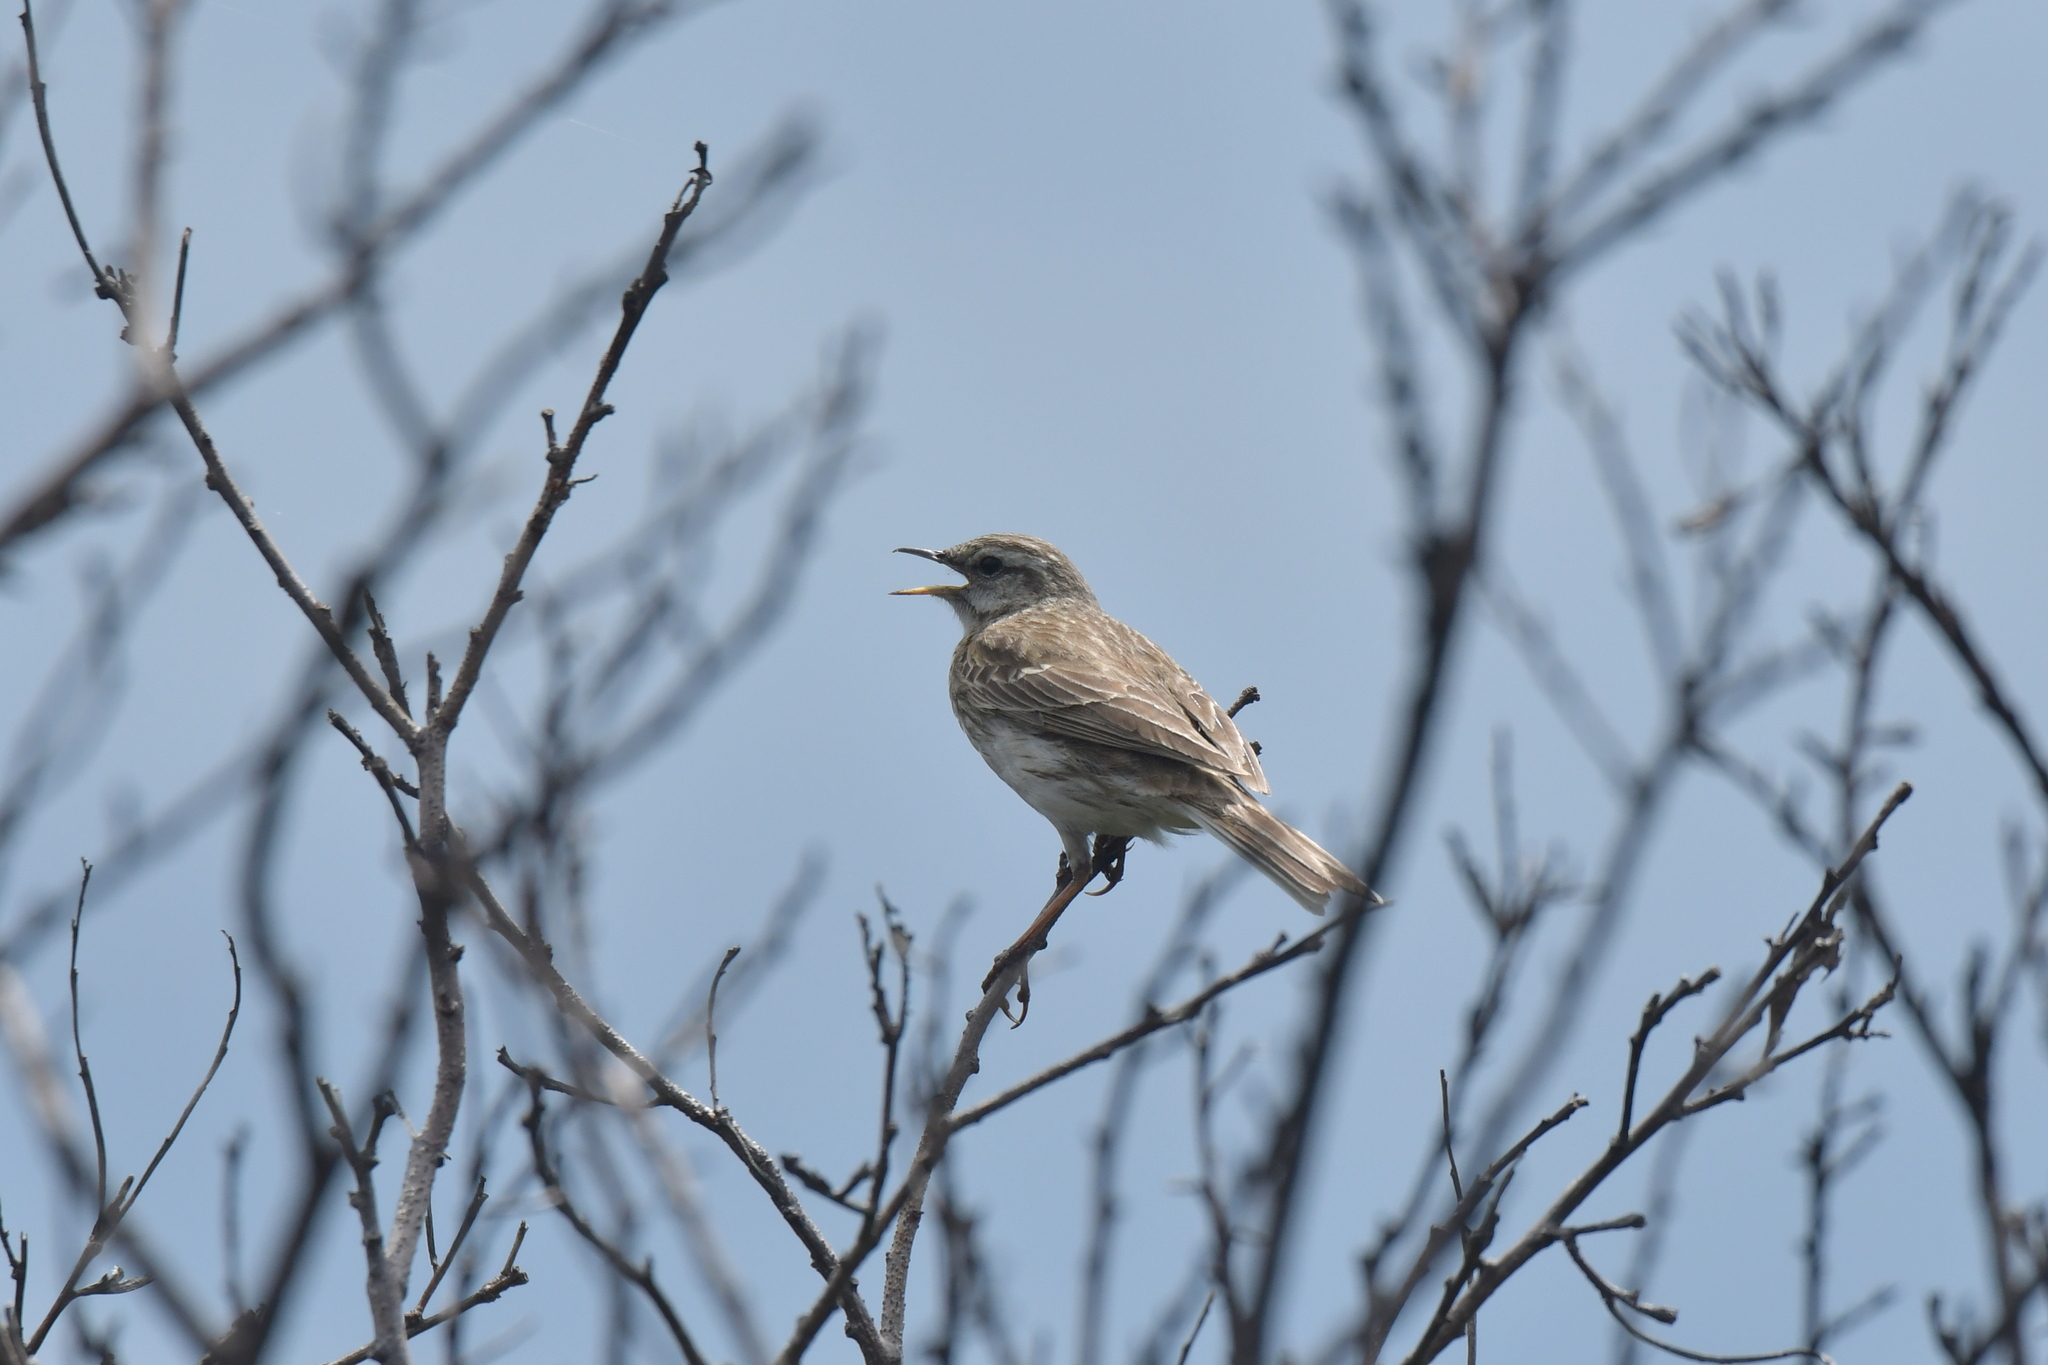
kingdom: Animalia
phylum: Chordata
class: Aves
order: Passeriformes
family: Motacillidae
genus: Anthus
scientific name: Anthus novaeseelandiae
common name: New zealand pipit
